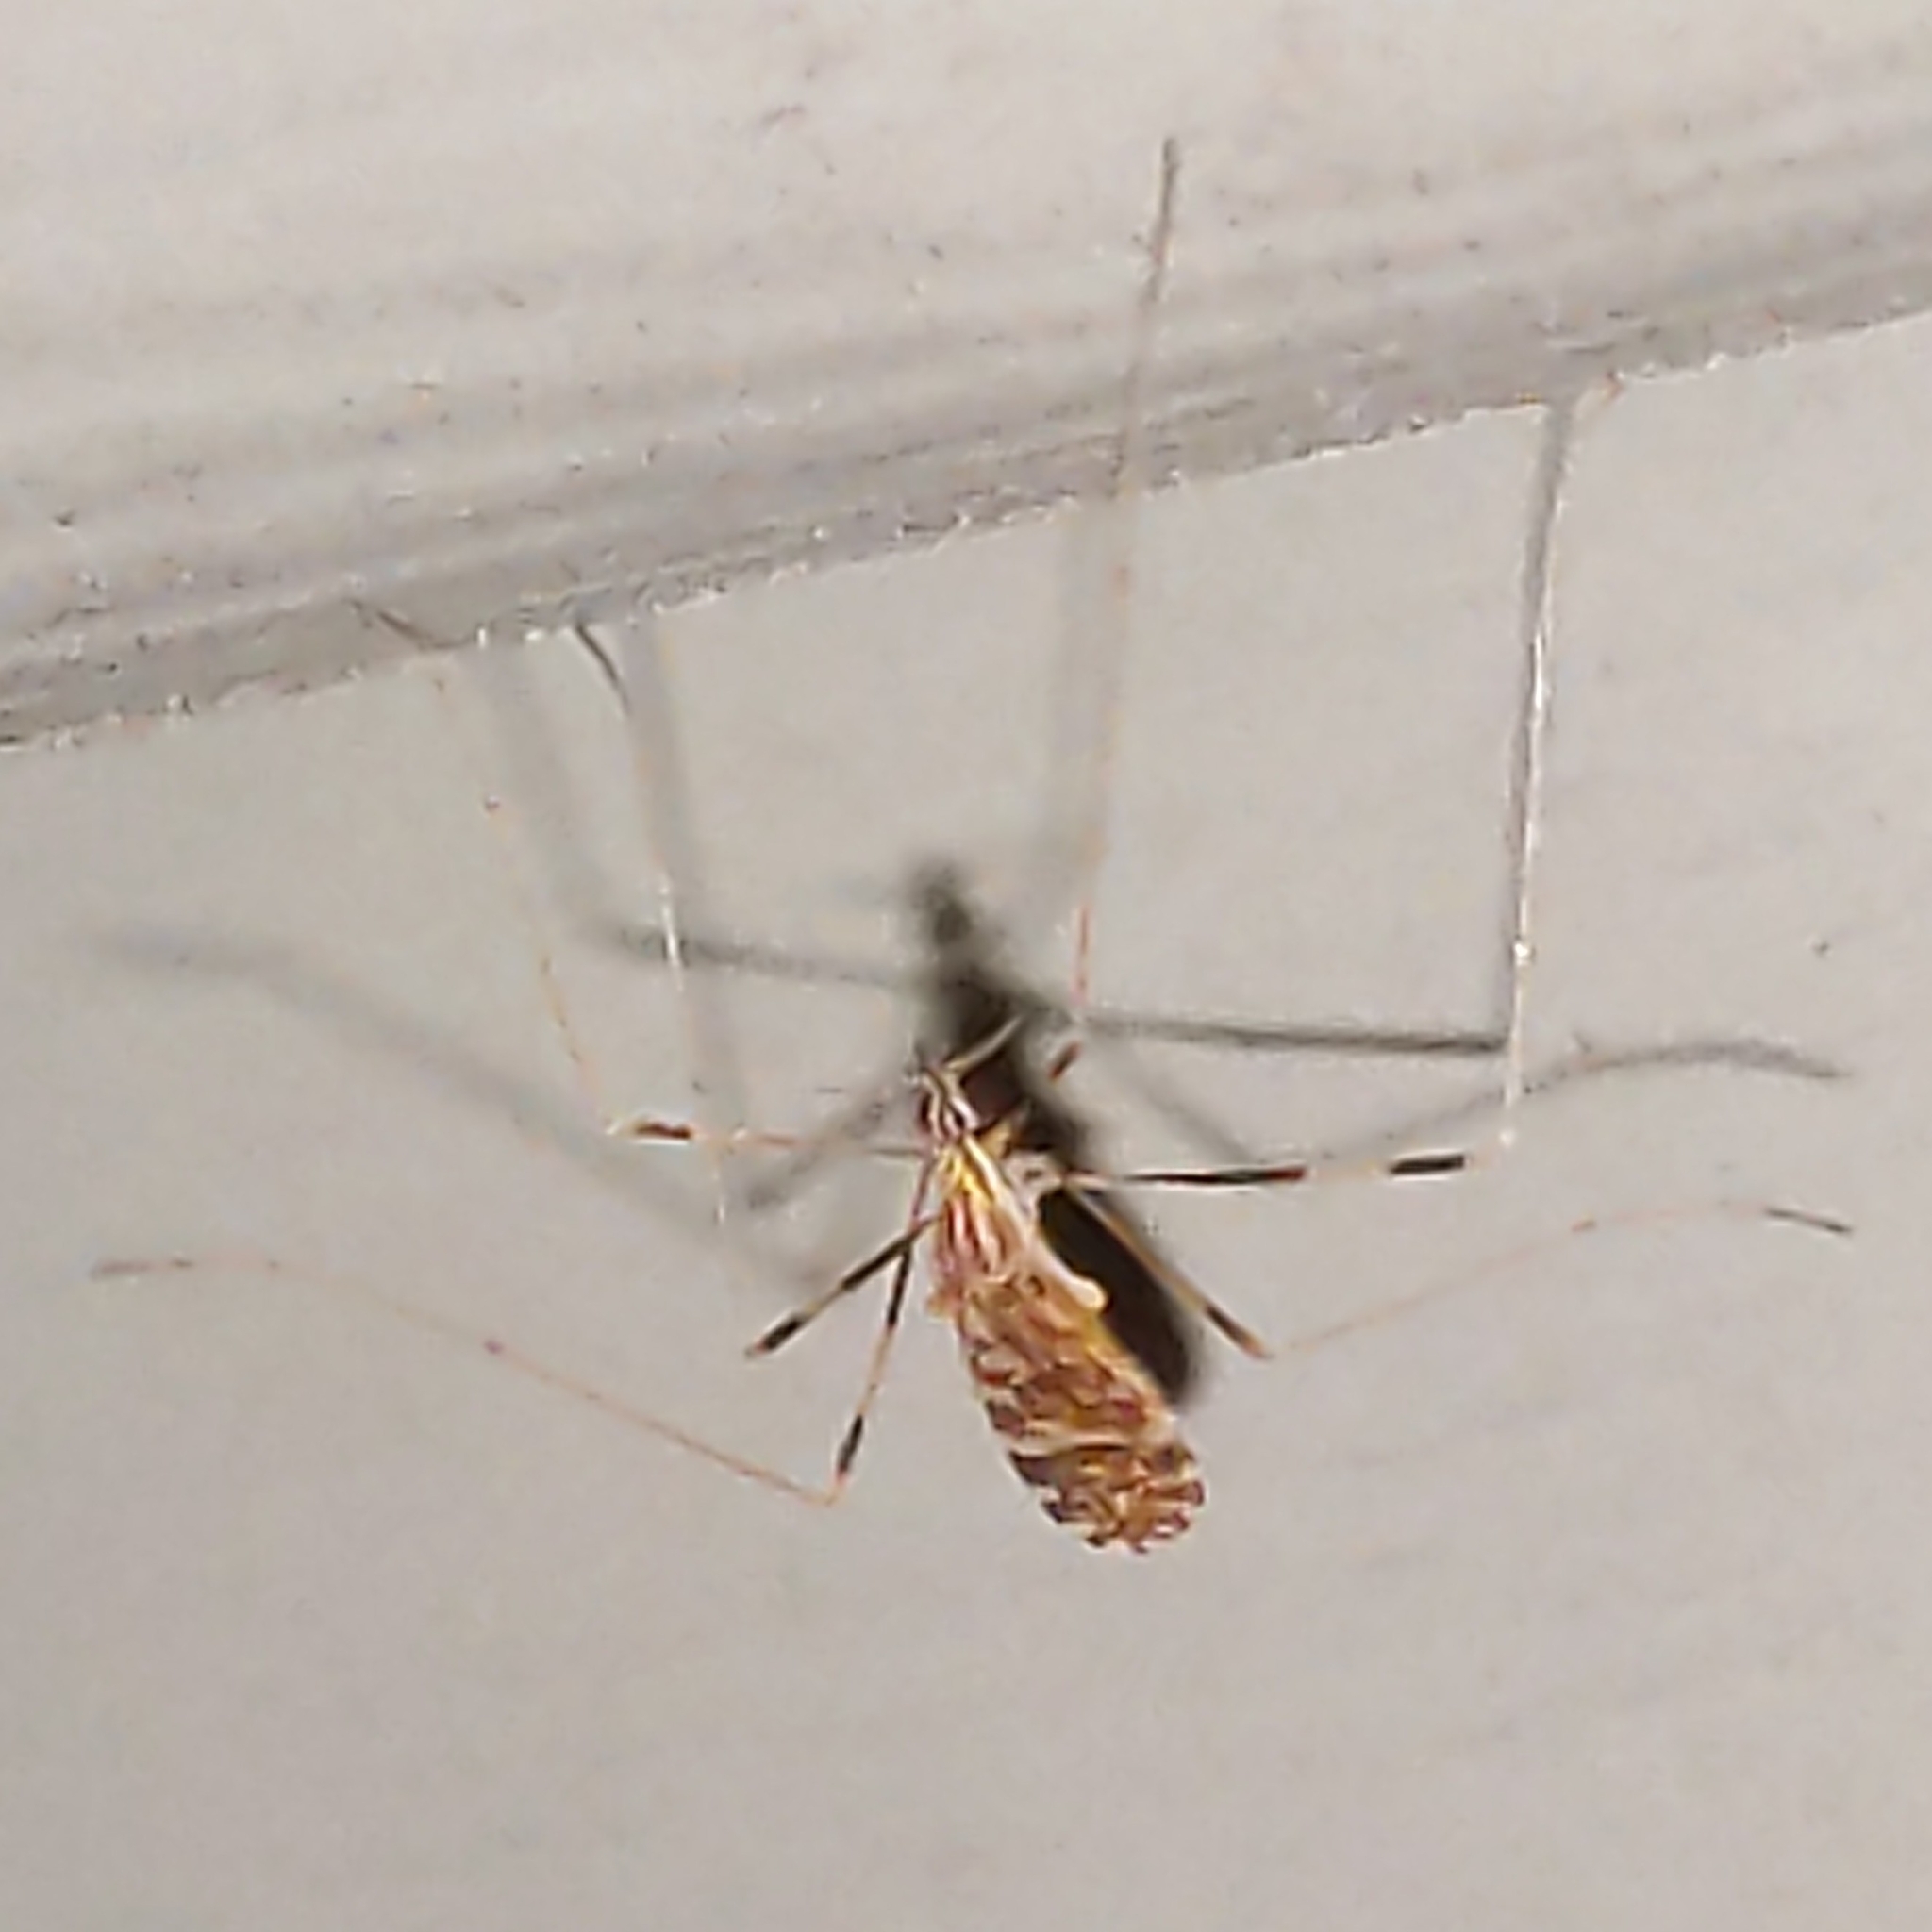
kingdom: Animalia
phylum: Arthropoda
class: Insecta
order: Diptera
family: Limoniidae
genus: Erioptera
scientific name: Erioptera caliptera
